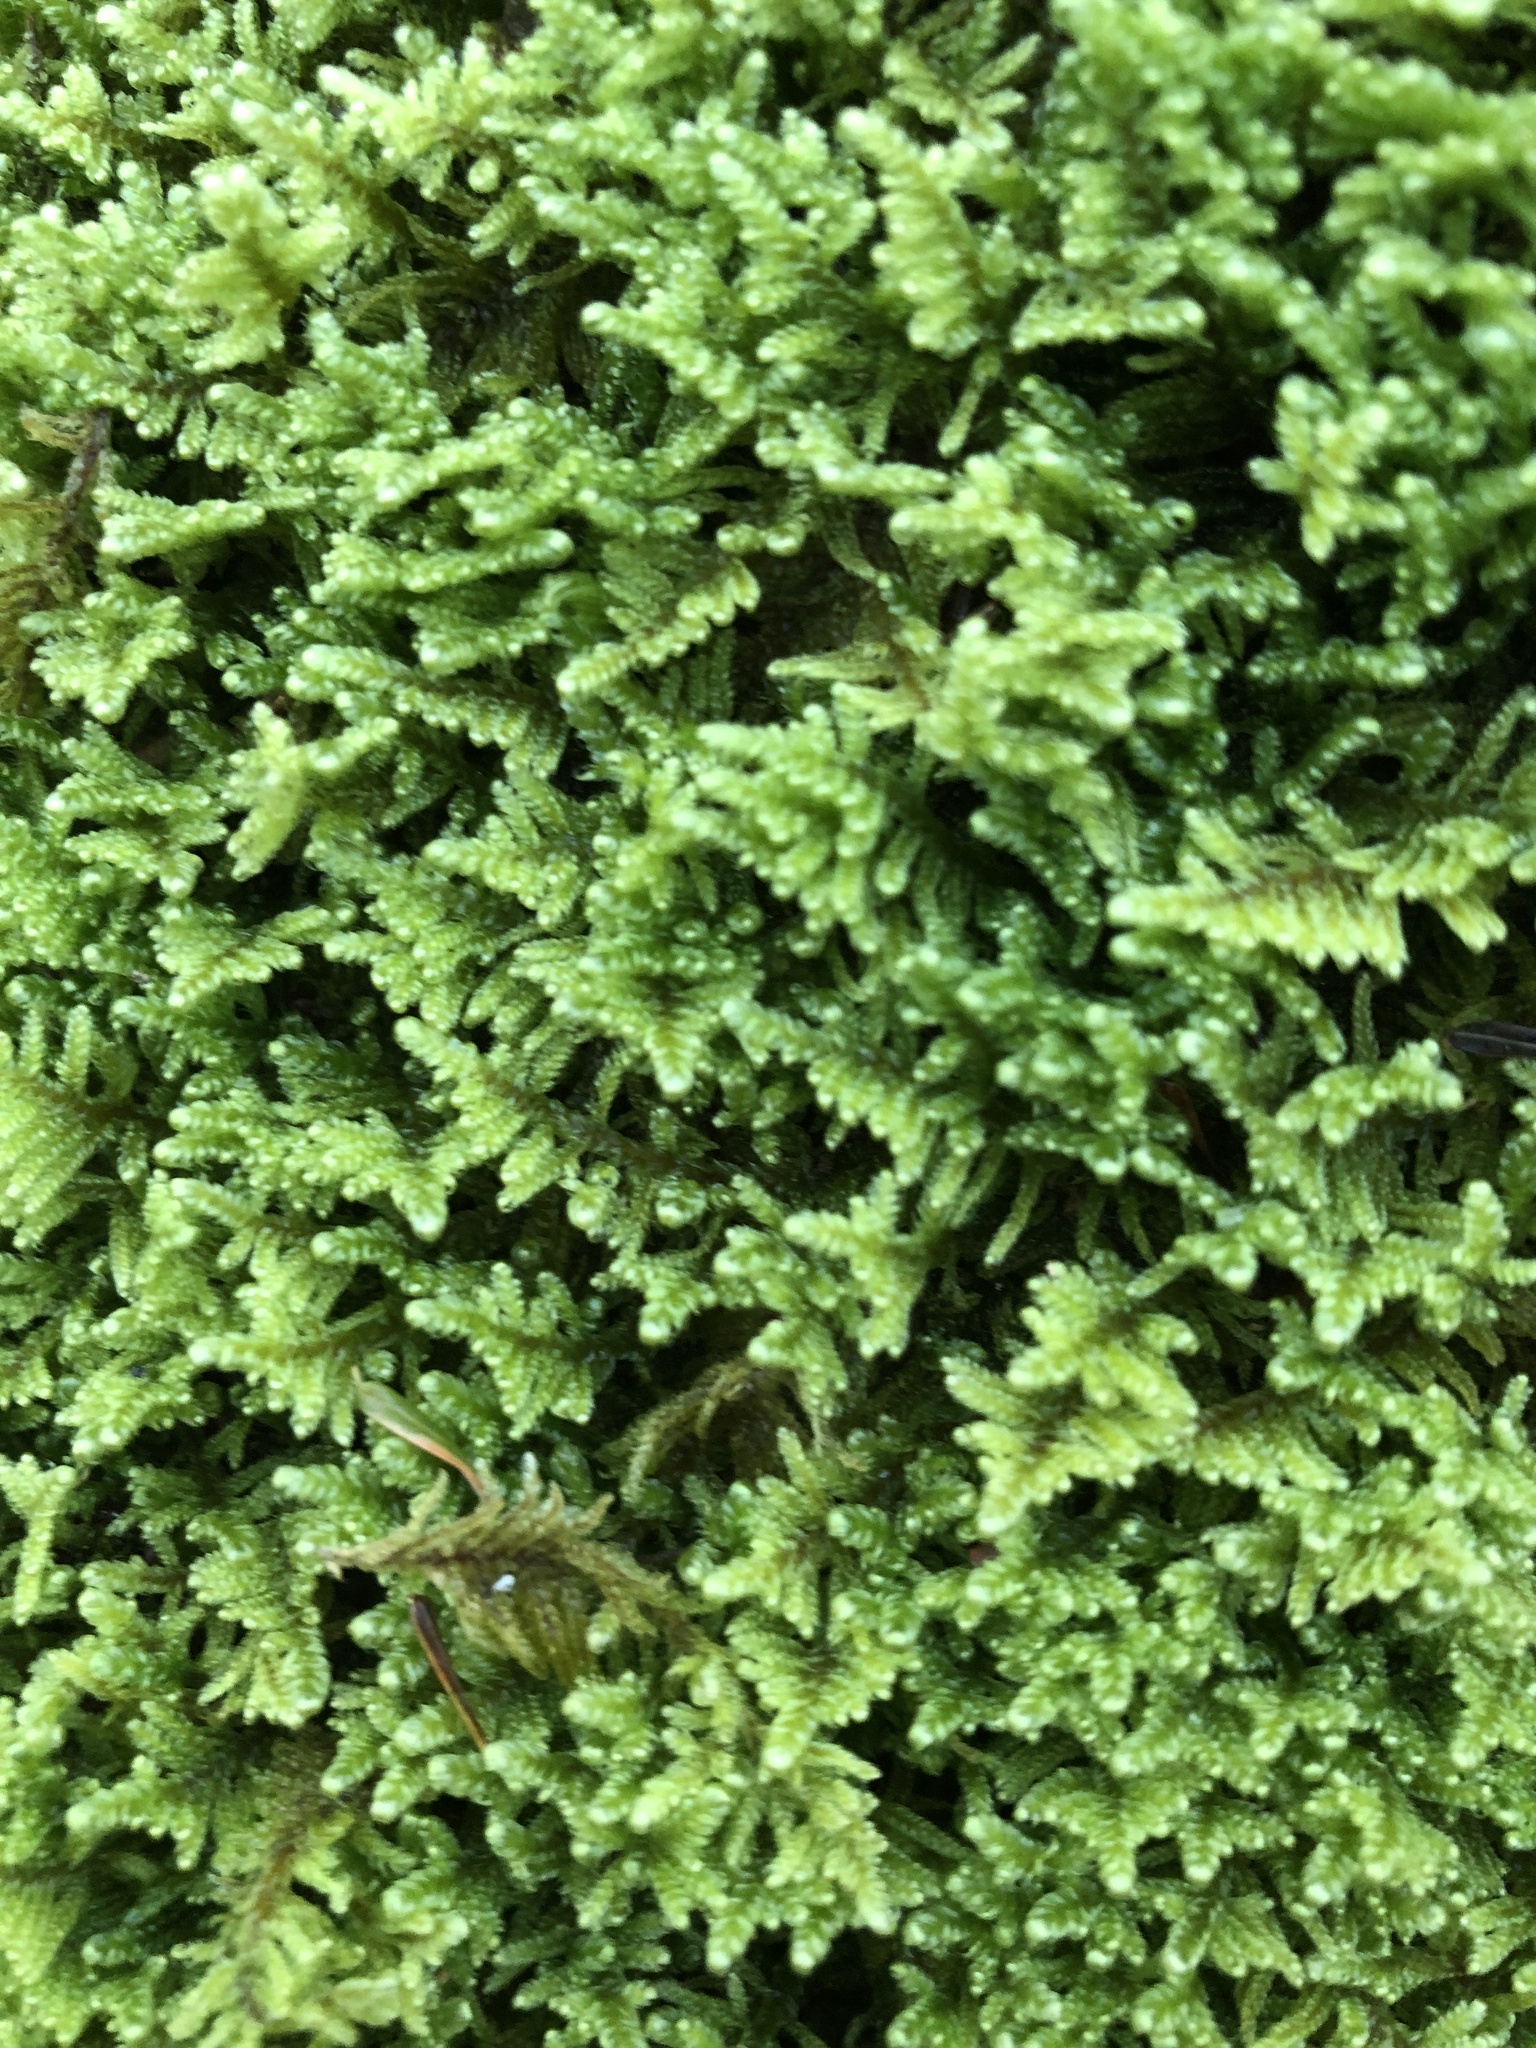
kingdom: Plantae
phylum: Bryophyta
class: Bryopsida
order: Hypnales
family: Callicladiaceae
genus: Callicladium
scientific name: Callicladium imponens
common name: Brocade moss
